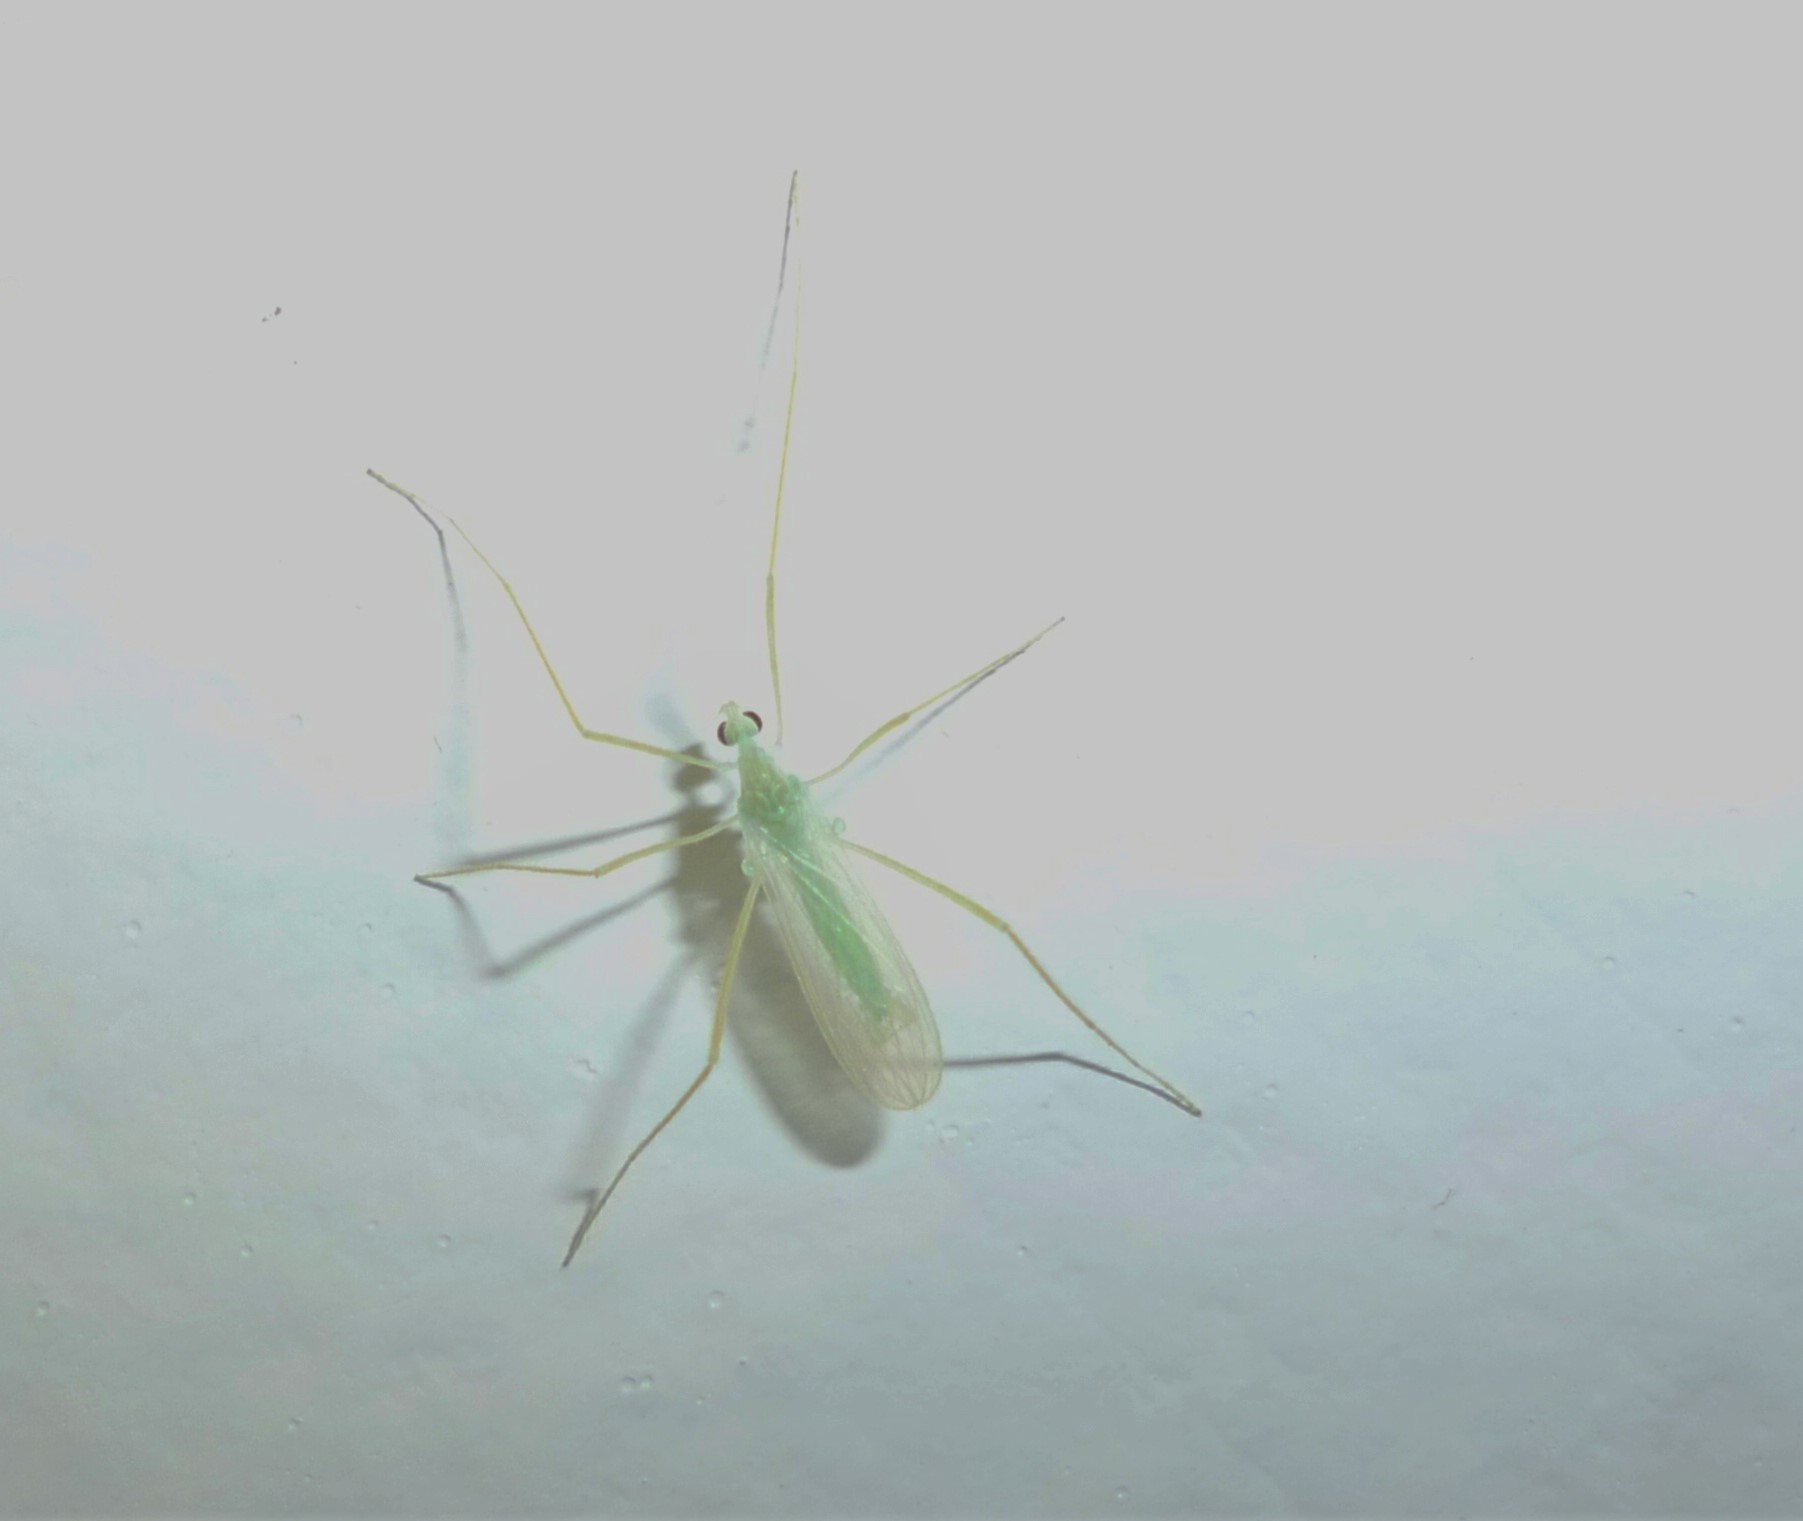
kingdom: Animalia
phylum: Arthropoda
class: Insecta
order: Diptera
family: Limoniidae
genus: Erioptera
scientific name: Erioptera
